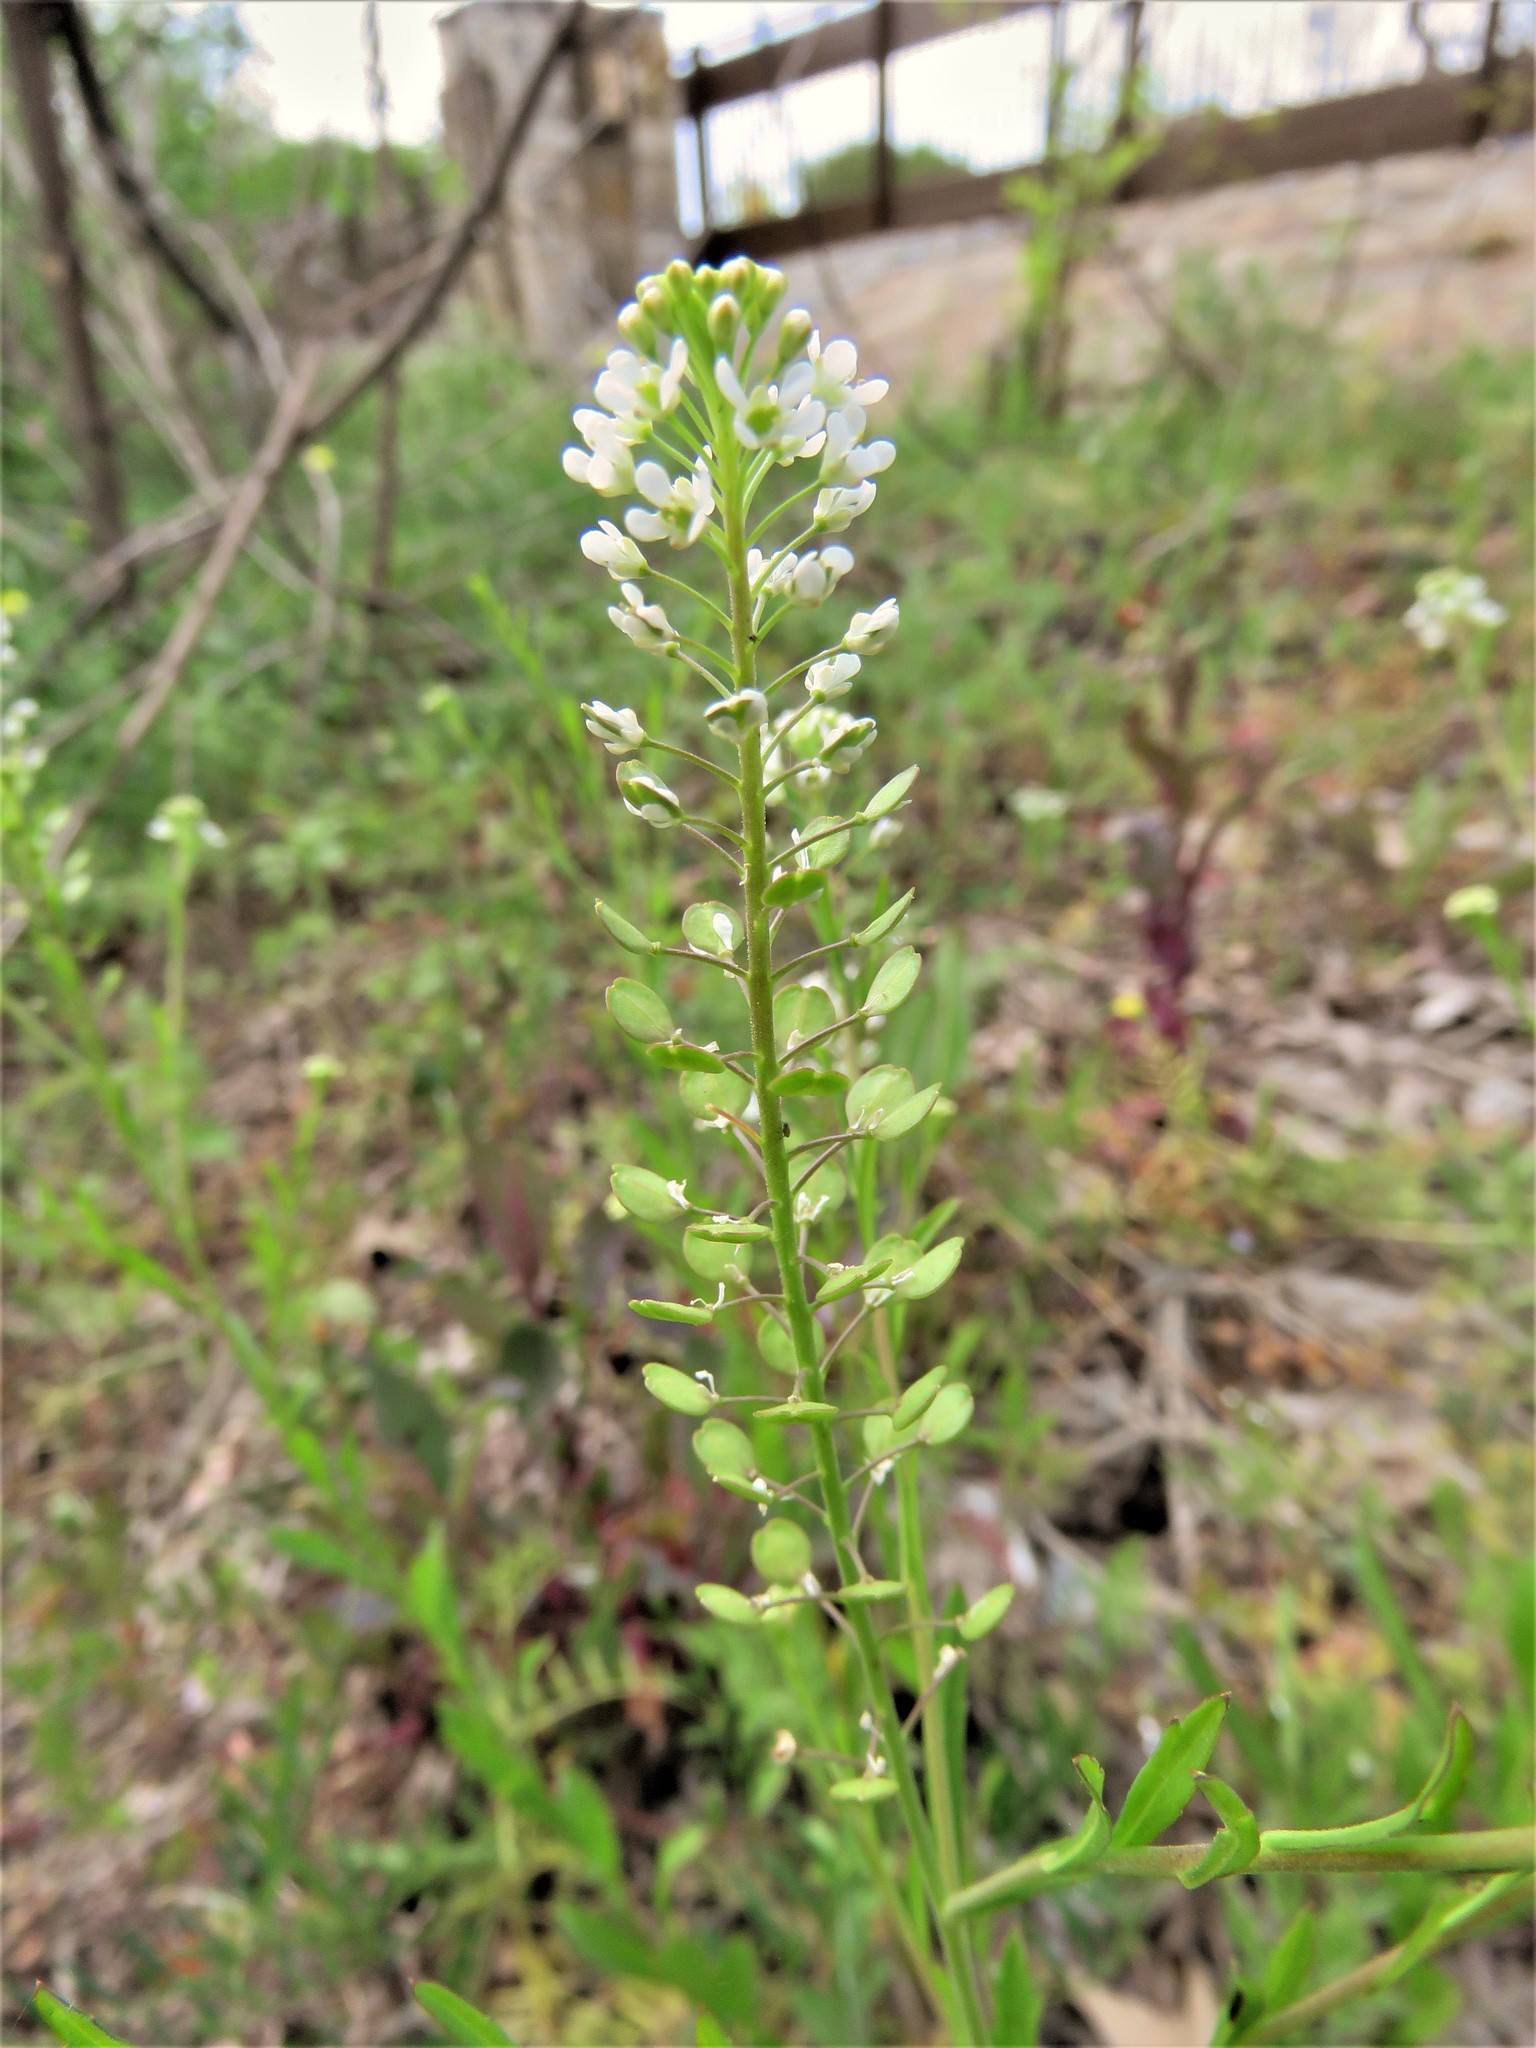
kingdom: Plantae
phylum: Tracheophyta
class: Magnoliopsida
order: Brassicales
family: Brassicaceae
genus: Lepidium
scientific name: Lepidium virginicum
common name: Least pepperwort
